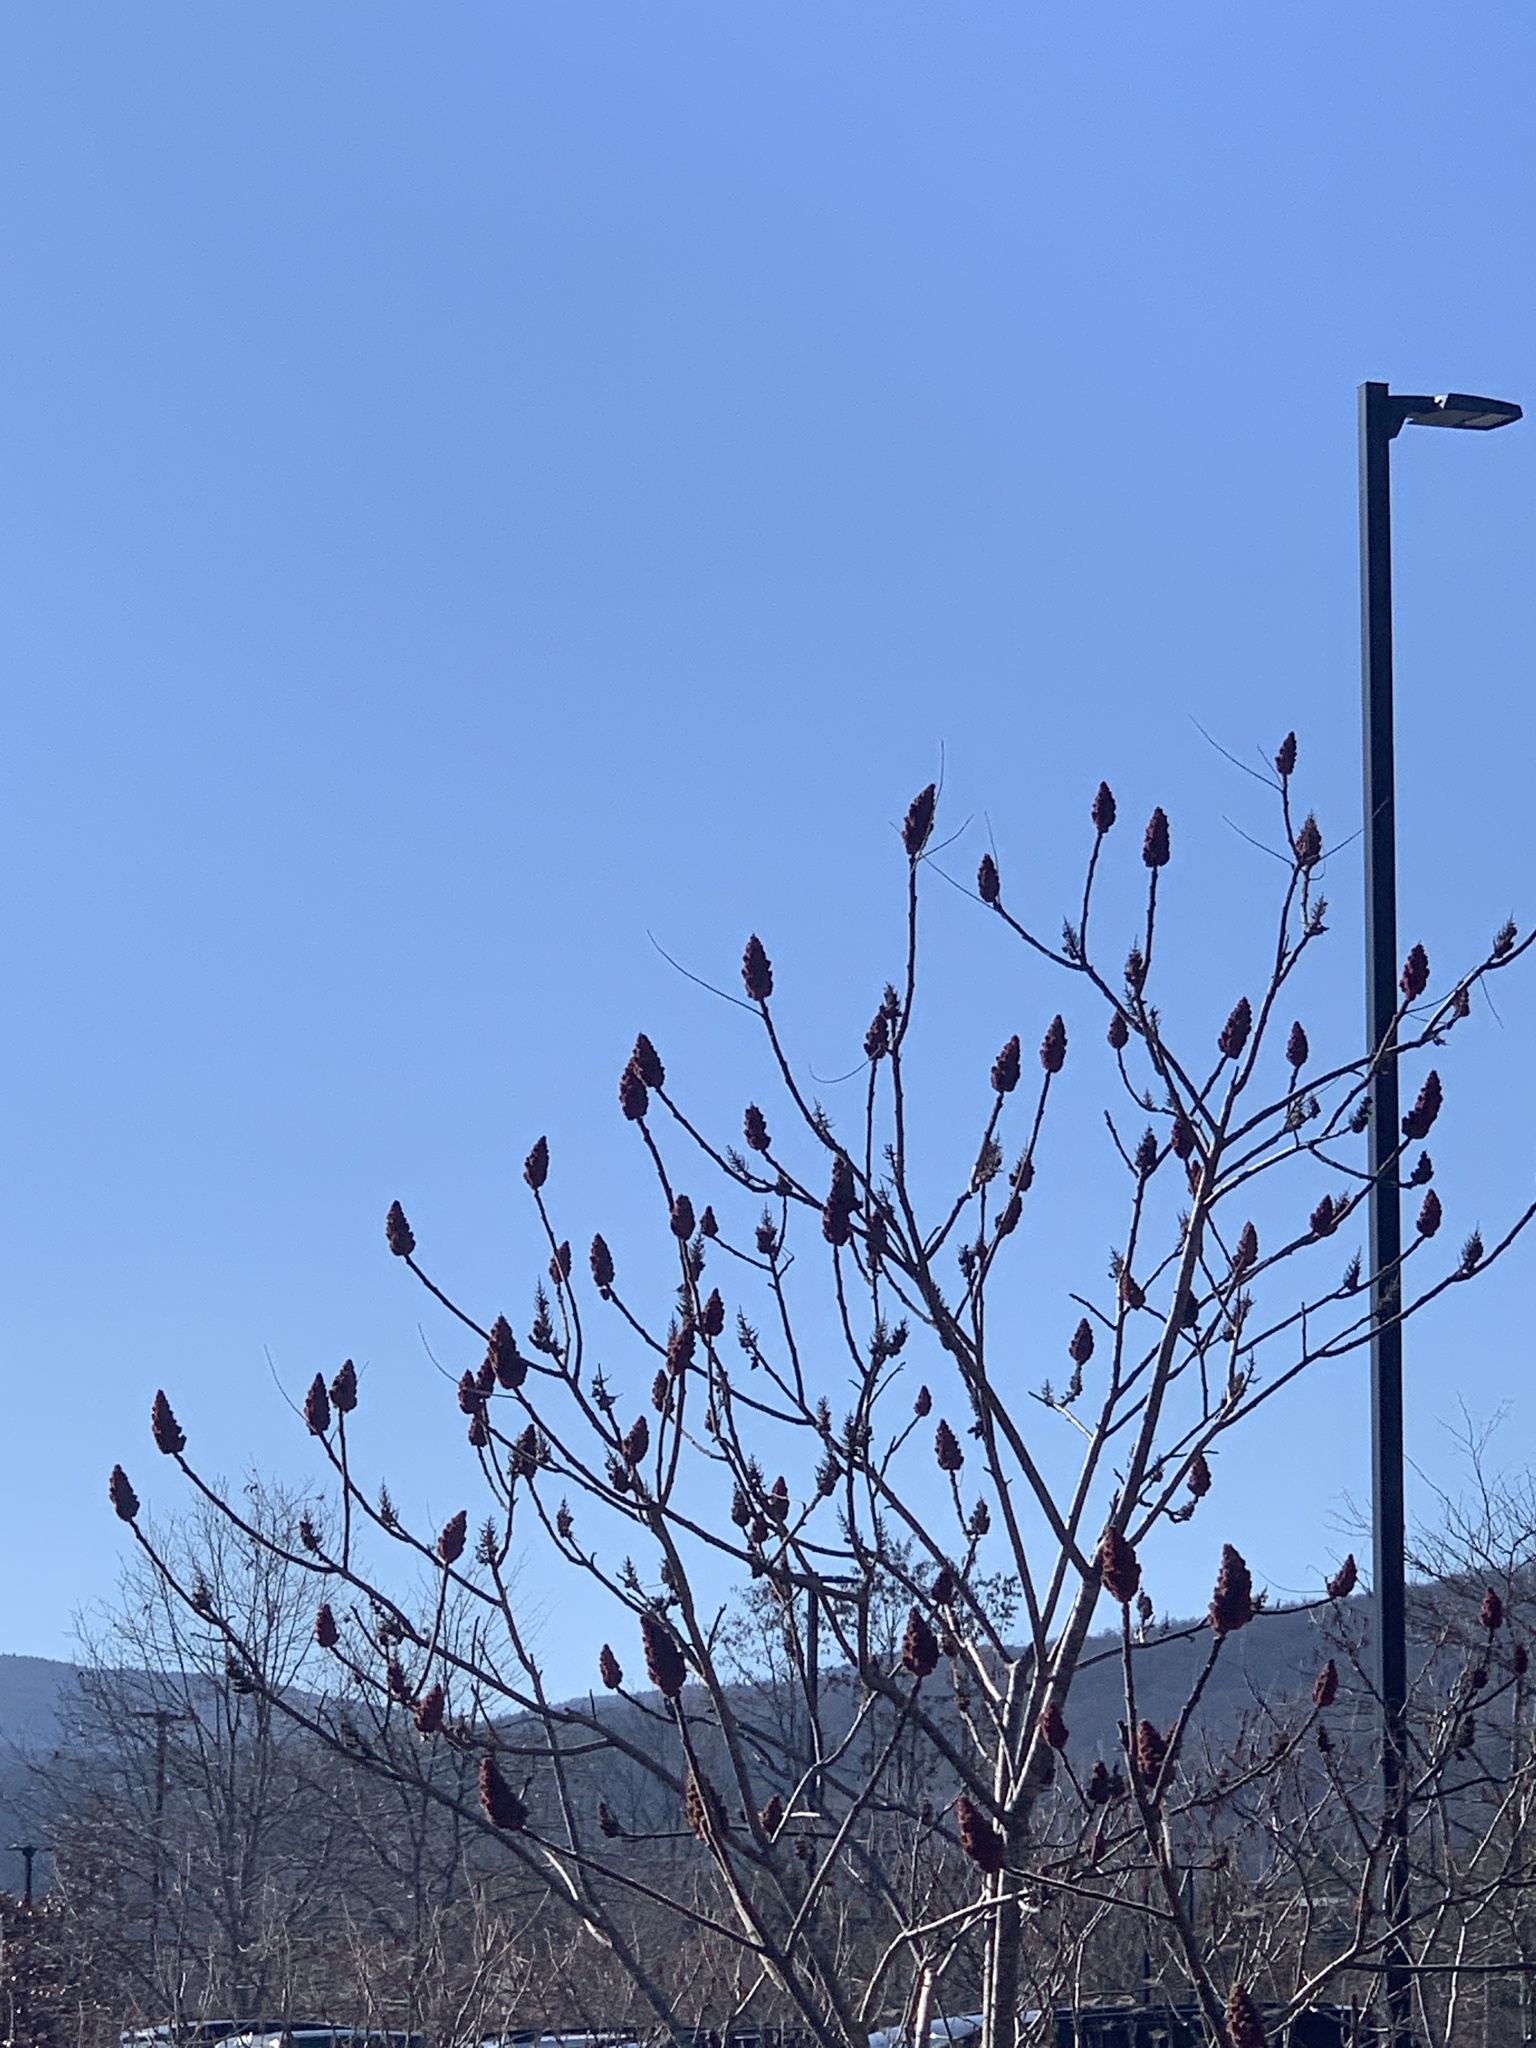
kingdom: Plantae
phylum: Tracheophyta
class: Magnoliopsida
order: Sapindales
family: Anacardiaceae
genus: Rhus
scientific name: Rhus typhina
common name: Staghorn sumac
